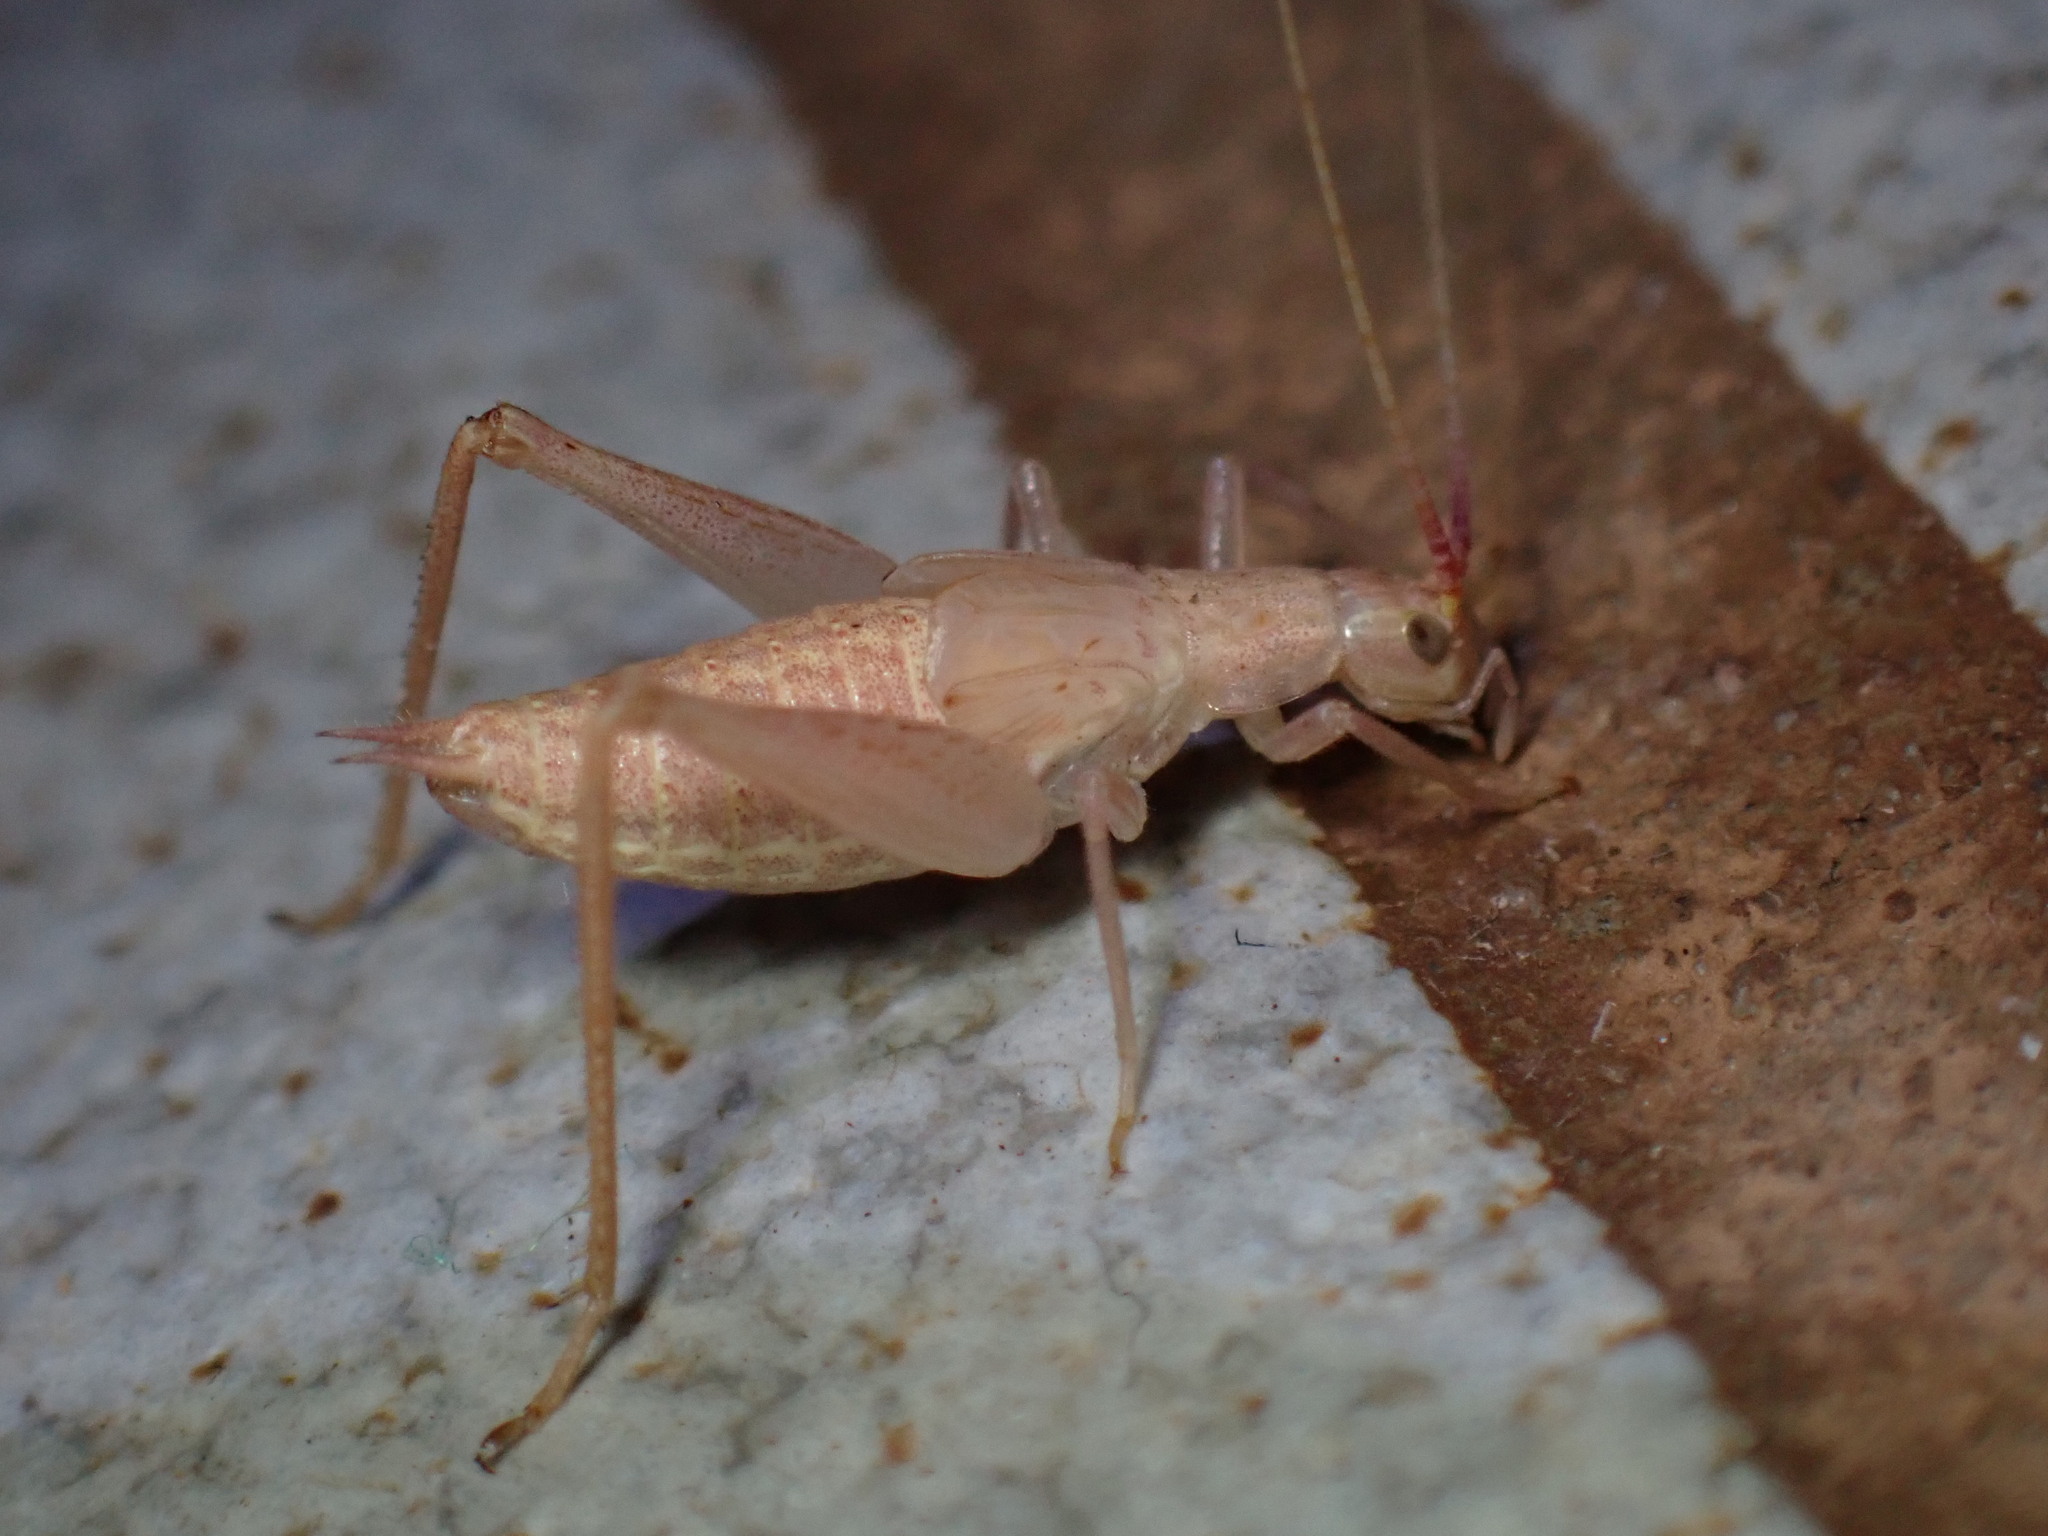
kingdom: Animalia
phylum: Arthropoda
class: Insecta
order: Orthoptera
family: Gryllidae
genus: Oecanthus
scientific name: Oecanthus californicus
